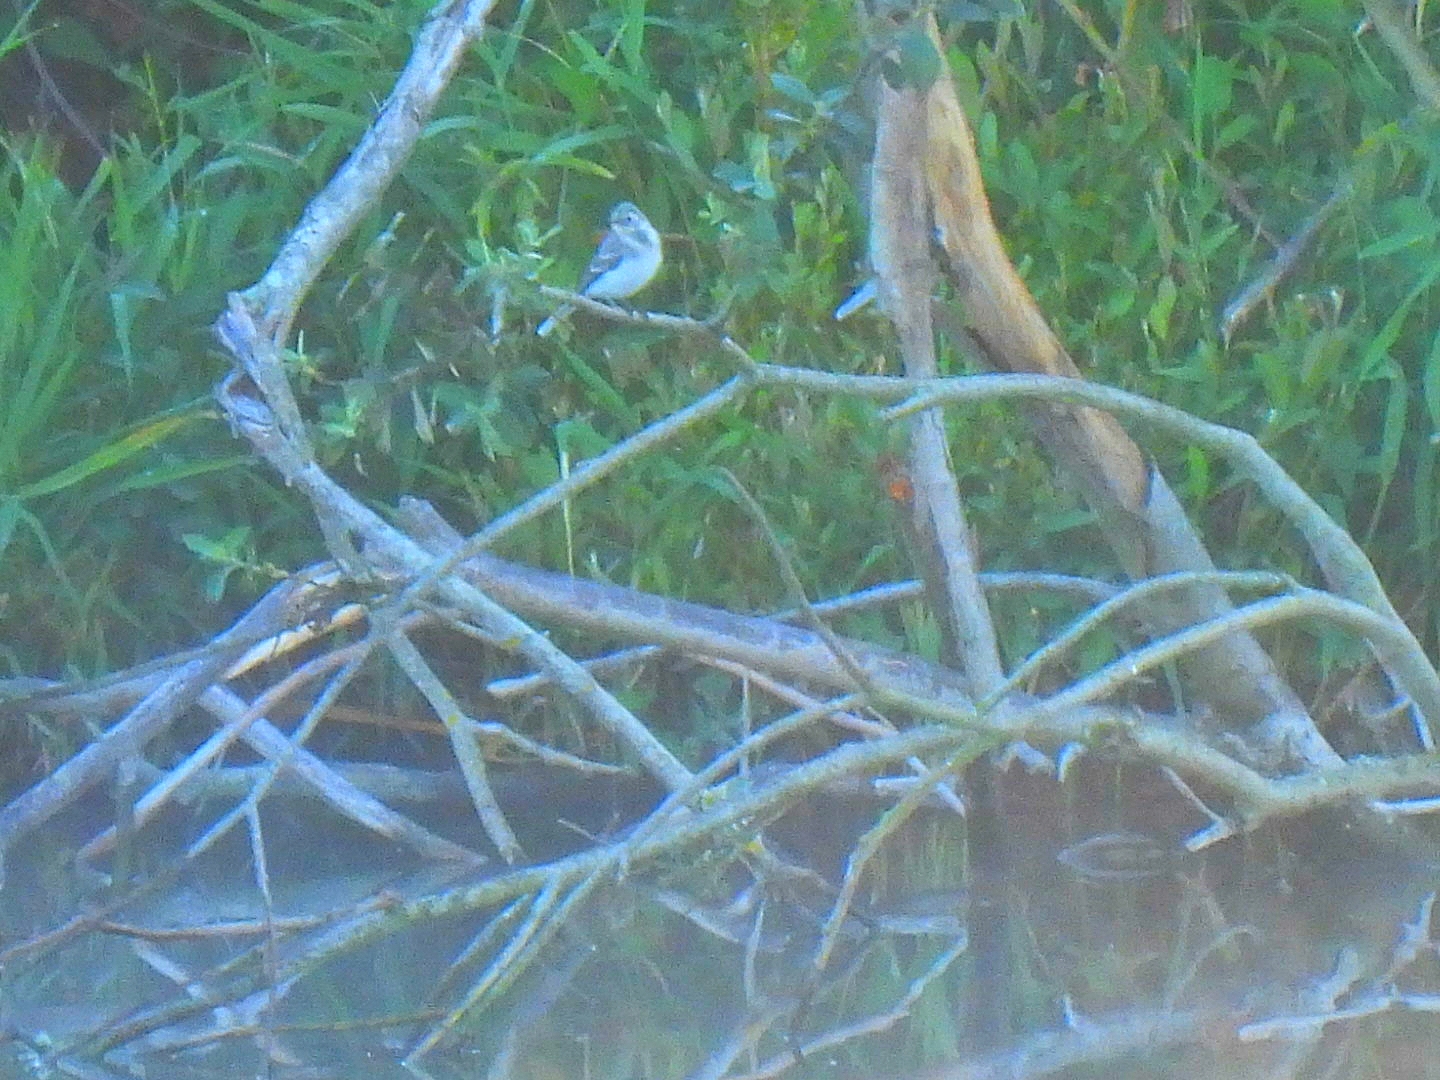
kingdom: Animalia
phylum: Chordata
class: Aves
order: Passeriformes
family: Motacillidae
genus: Motacilla
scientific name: Motacilla alba
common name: White wagtail
